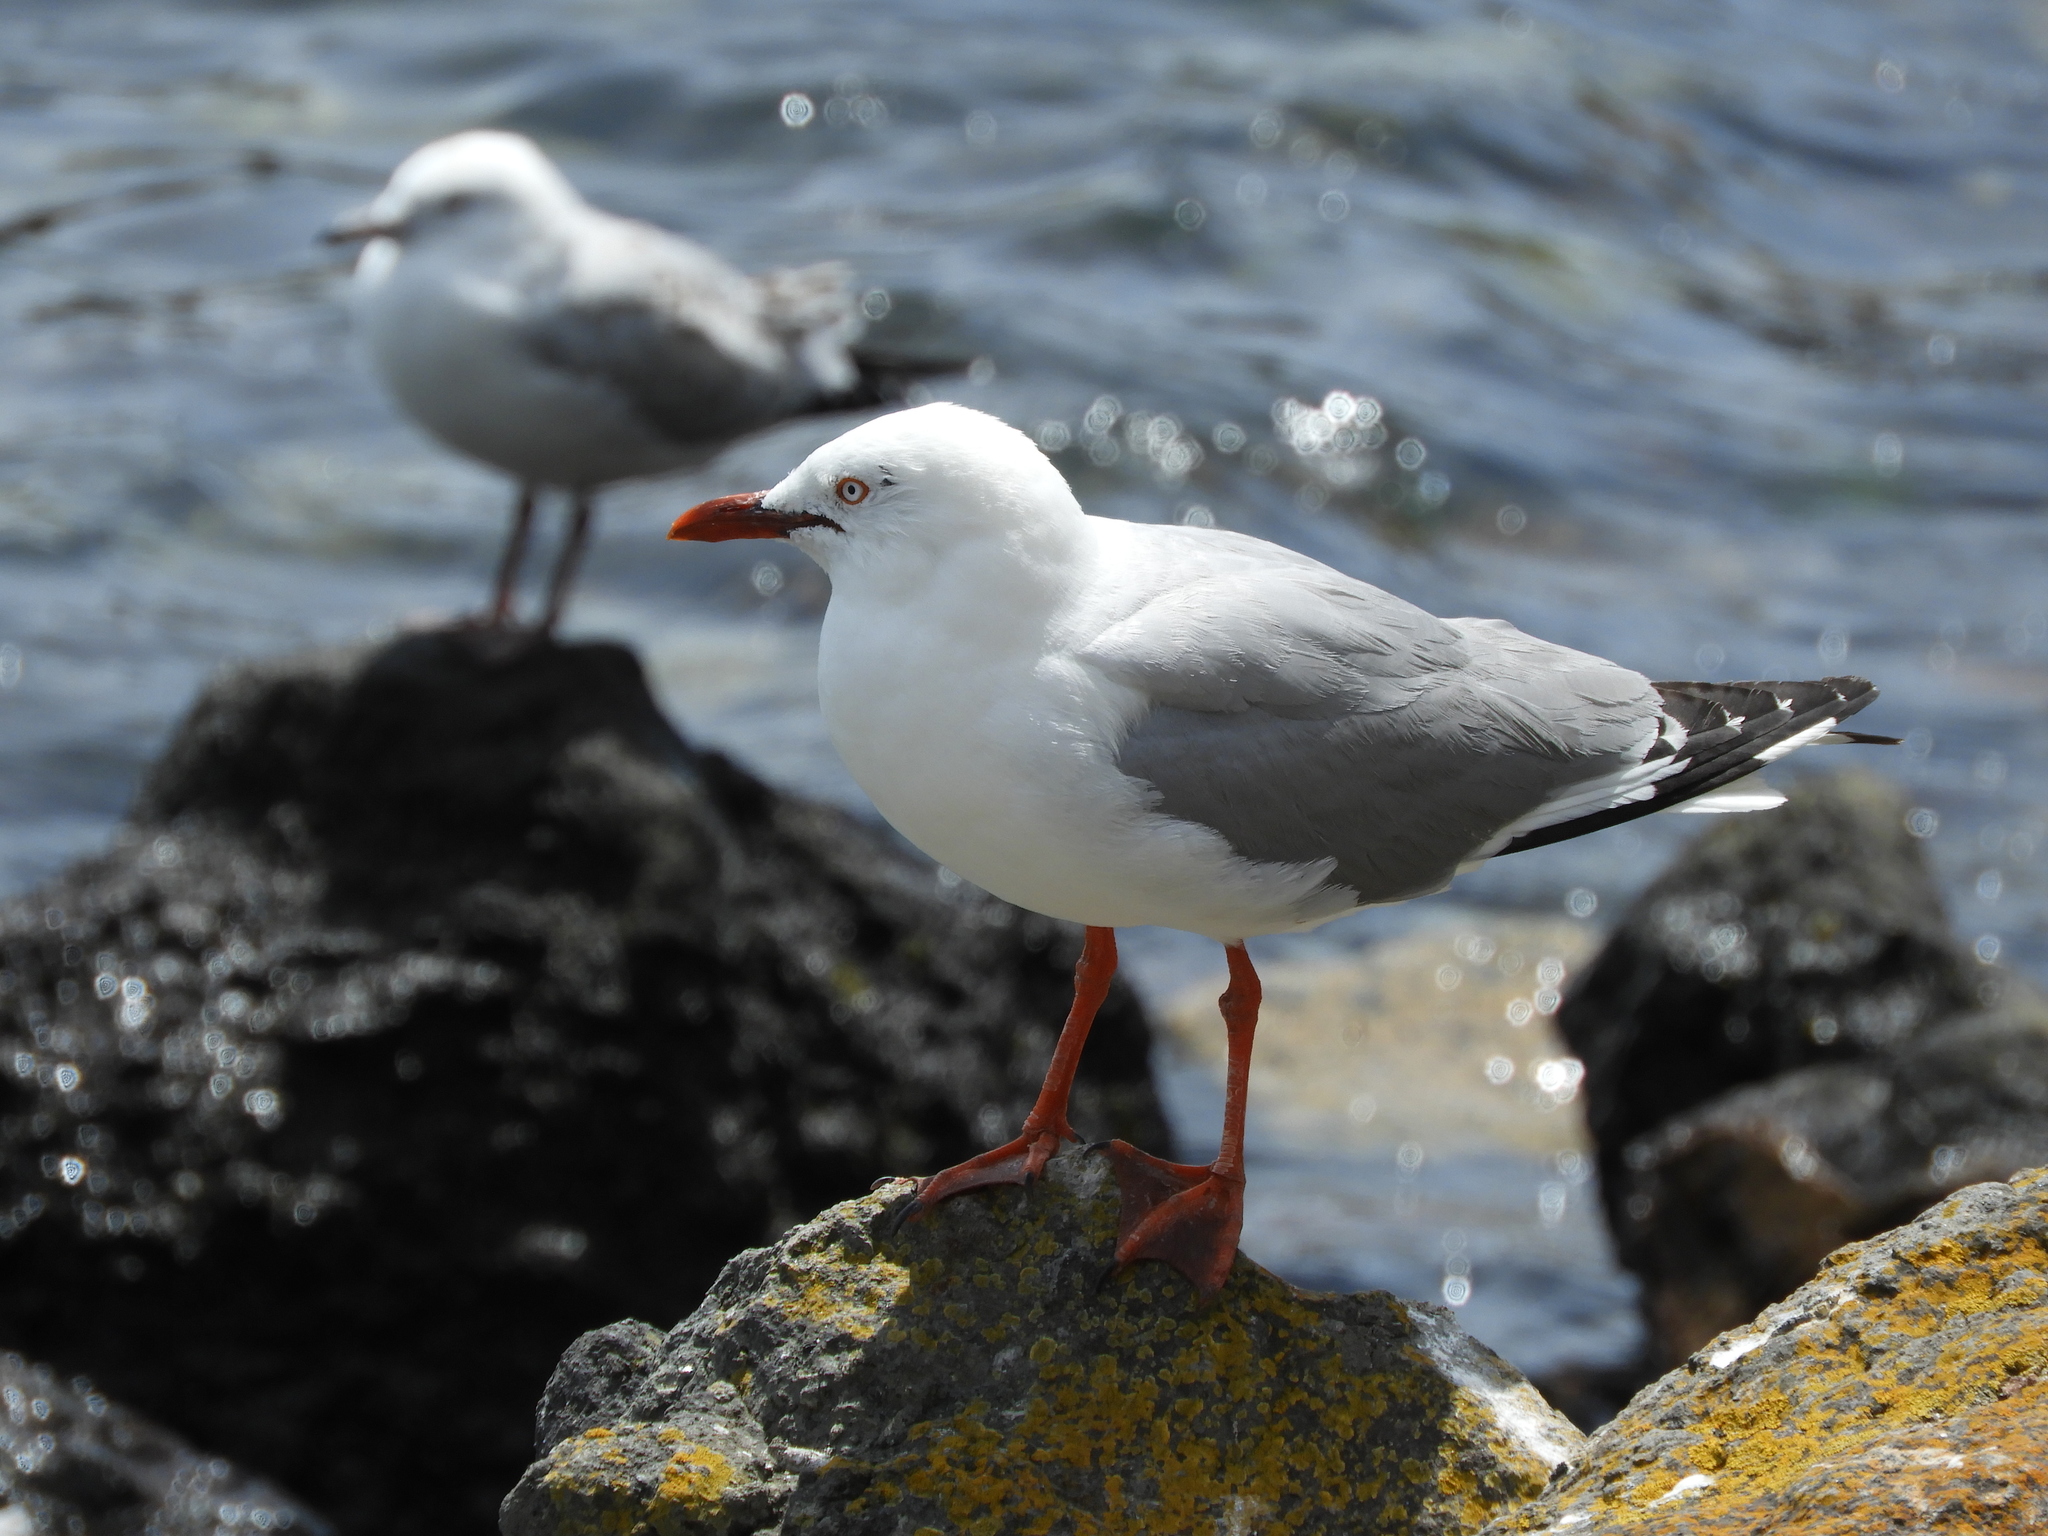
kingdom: Animalia
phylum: Chordata
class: Aves
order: Charadriiformes
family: Laridae
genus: Chroicocephalus
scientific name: Chroicocephalus novaehollandiae
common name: Silver gull
